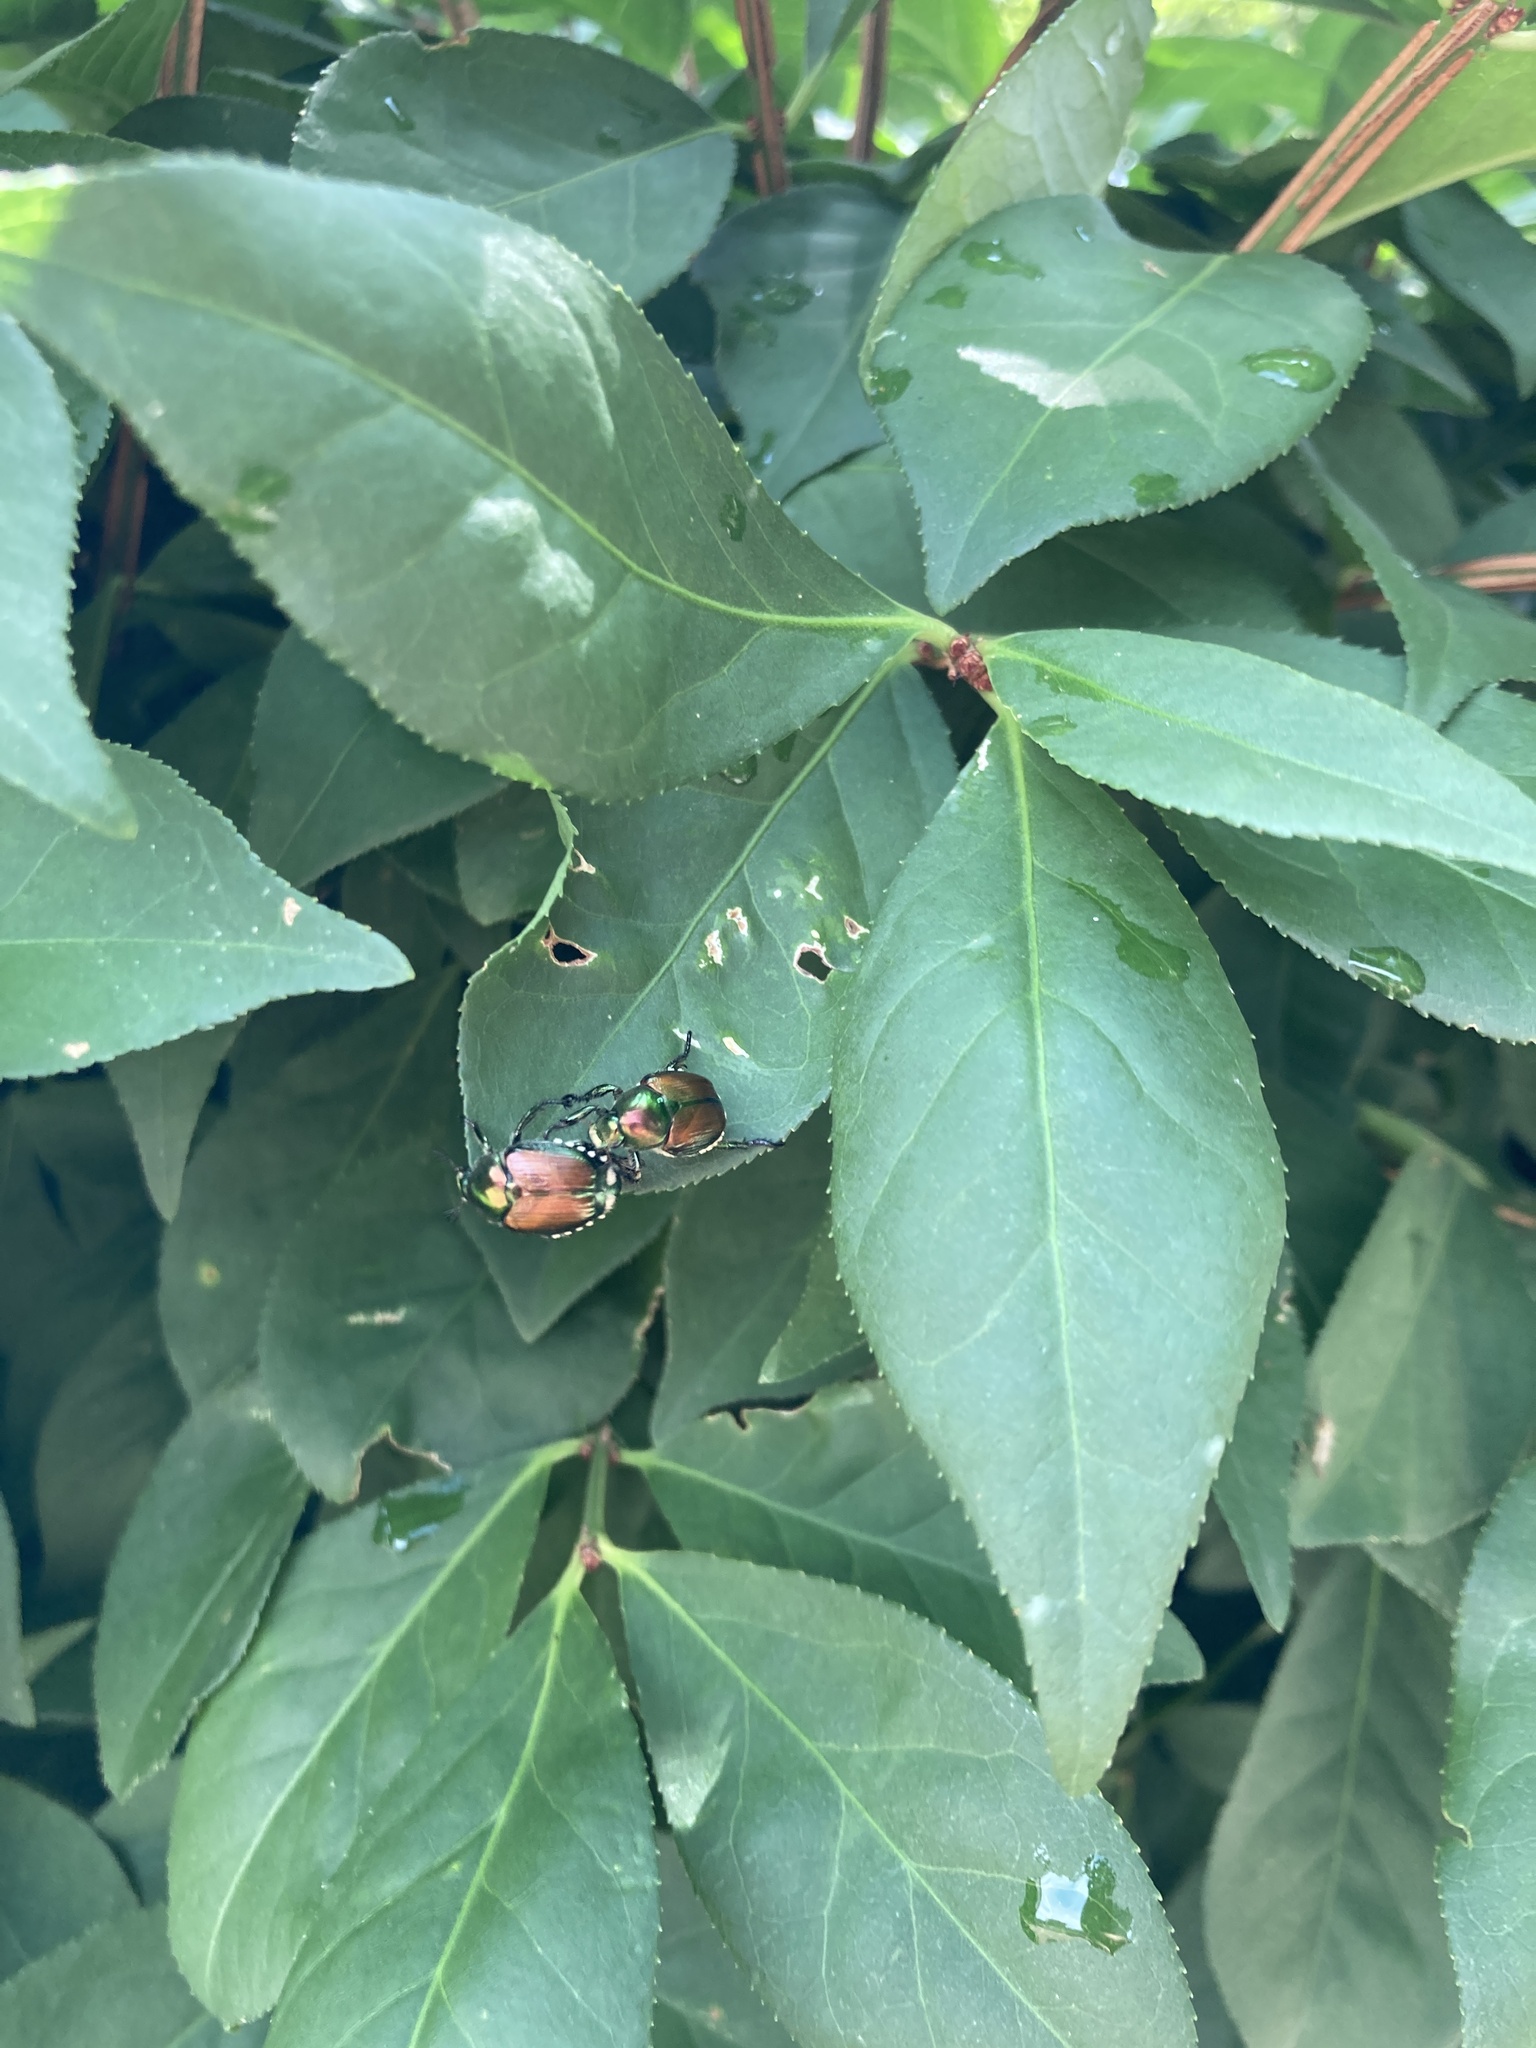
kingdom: Animalia
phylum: Arthropoda
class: Insecta
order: Coleoptera
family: Scarabaeidae
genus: Popillia
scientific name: Popillia japonica
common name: Japanese beetle
